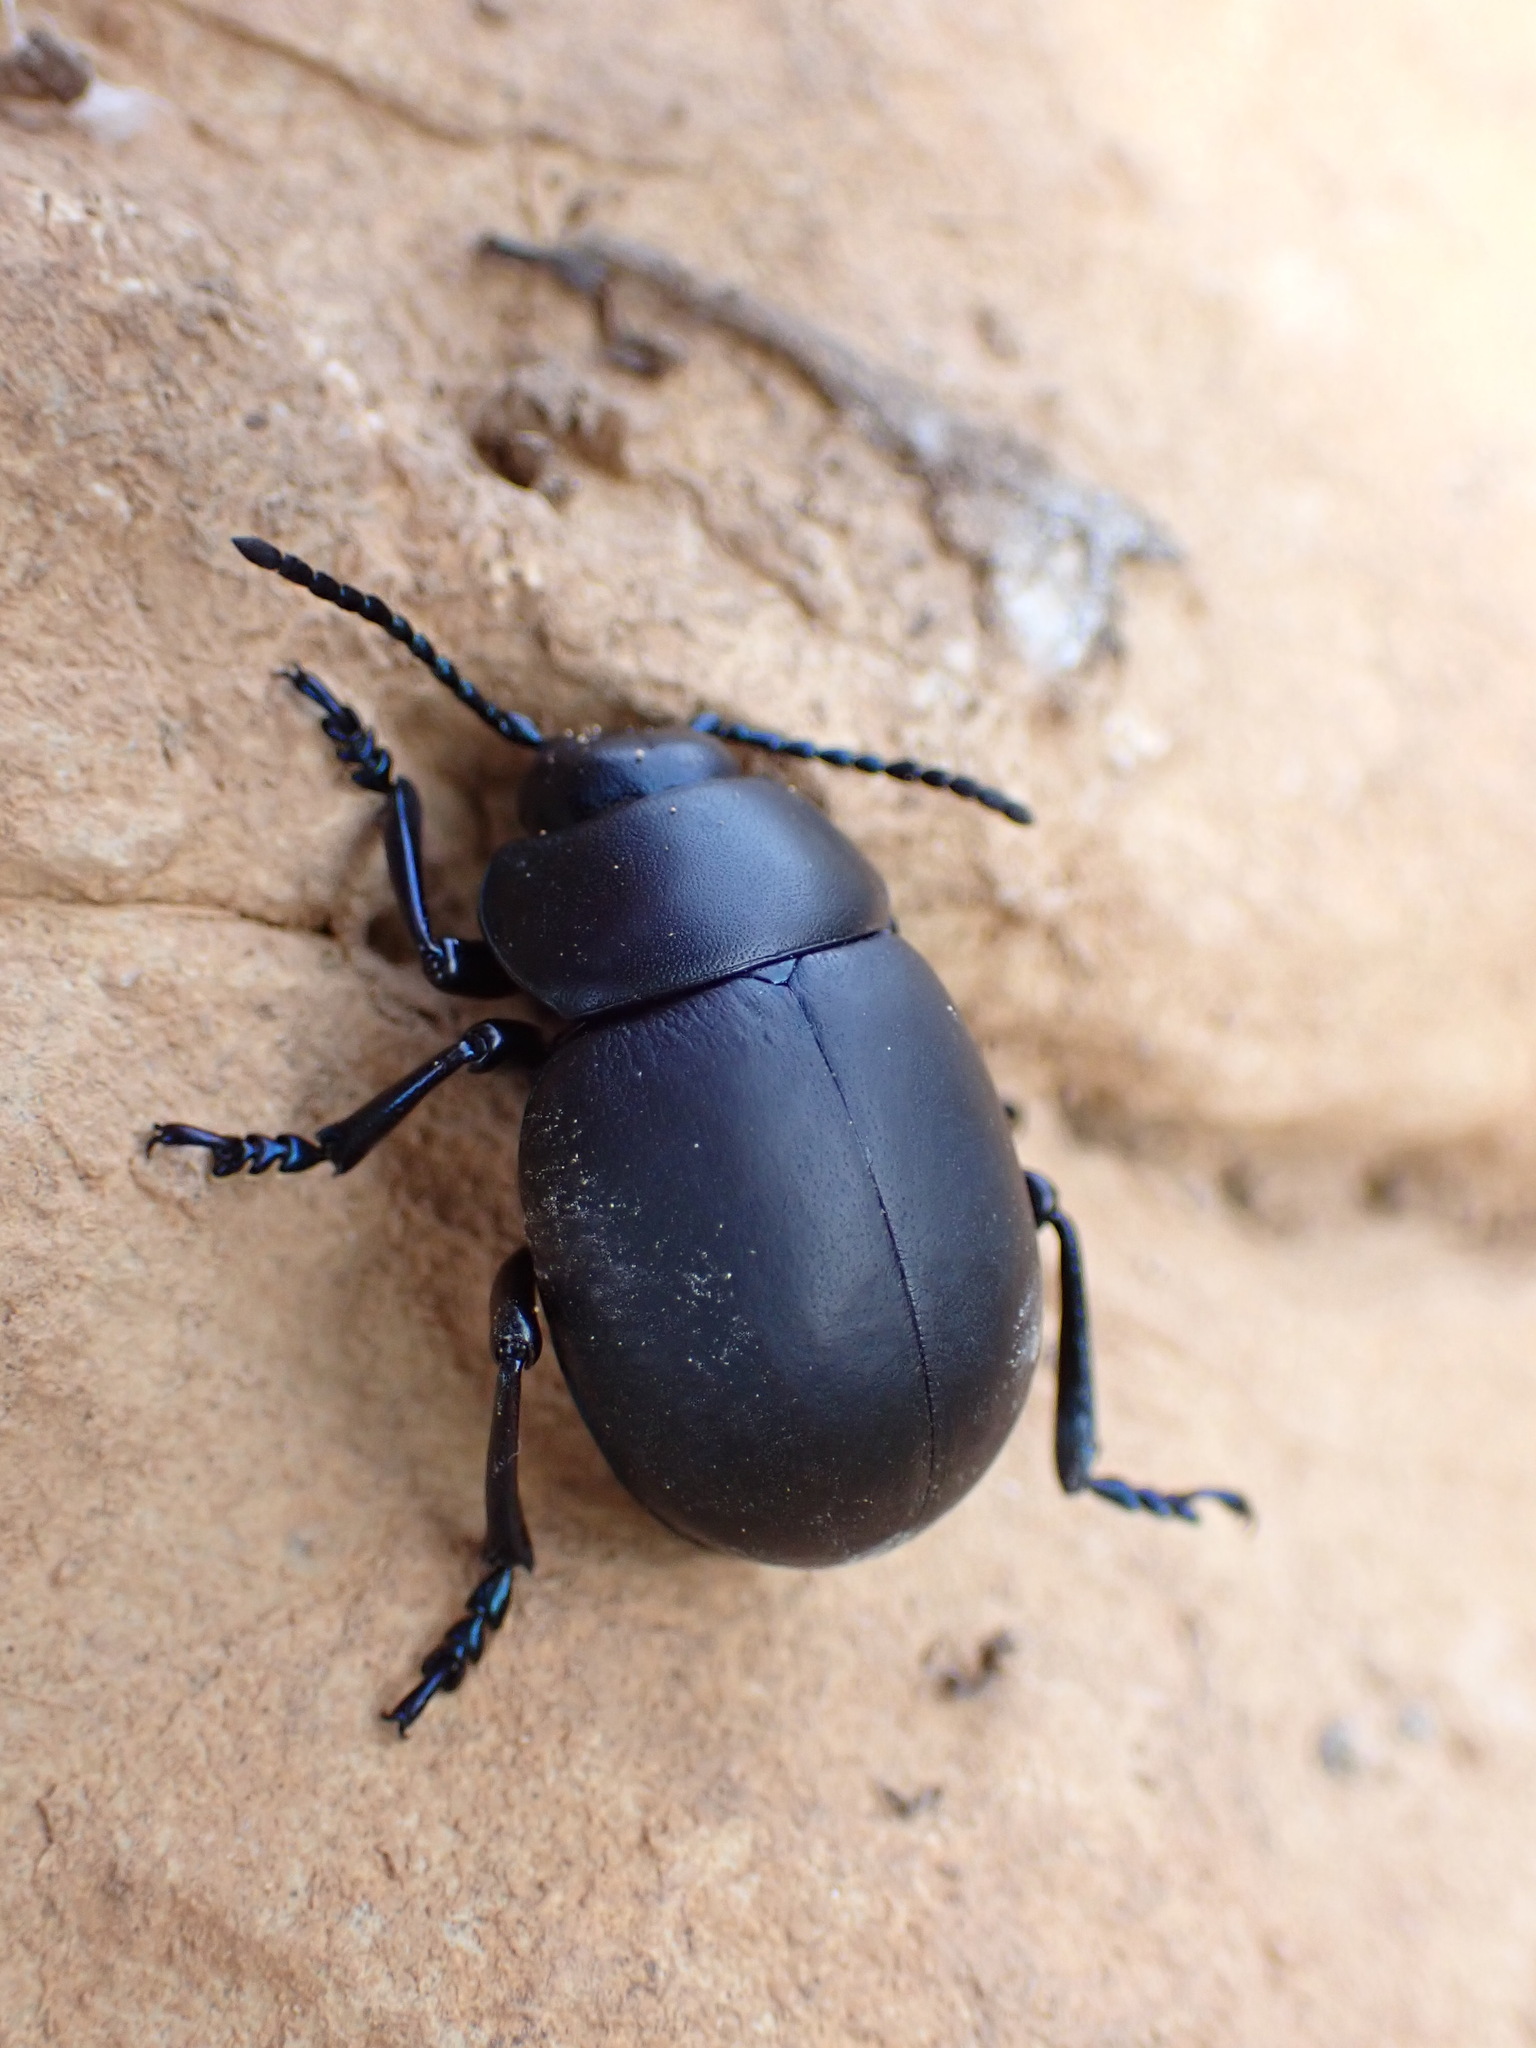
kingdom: Animalia
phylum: Arthropoda
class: Insecta
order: Coleoptera
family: Chrysomelidae
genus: Timarcha
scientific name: Timarcha nicaeensis
